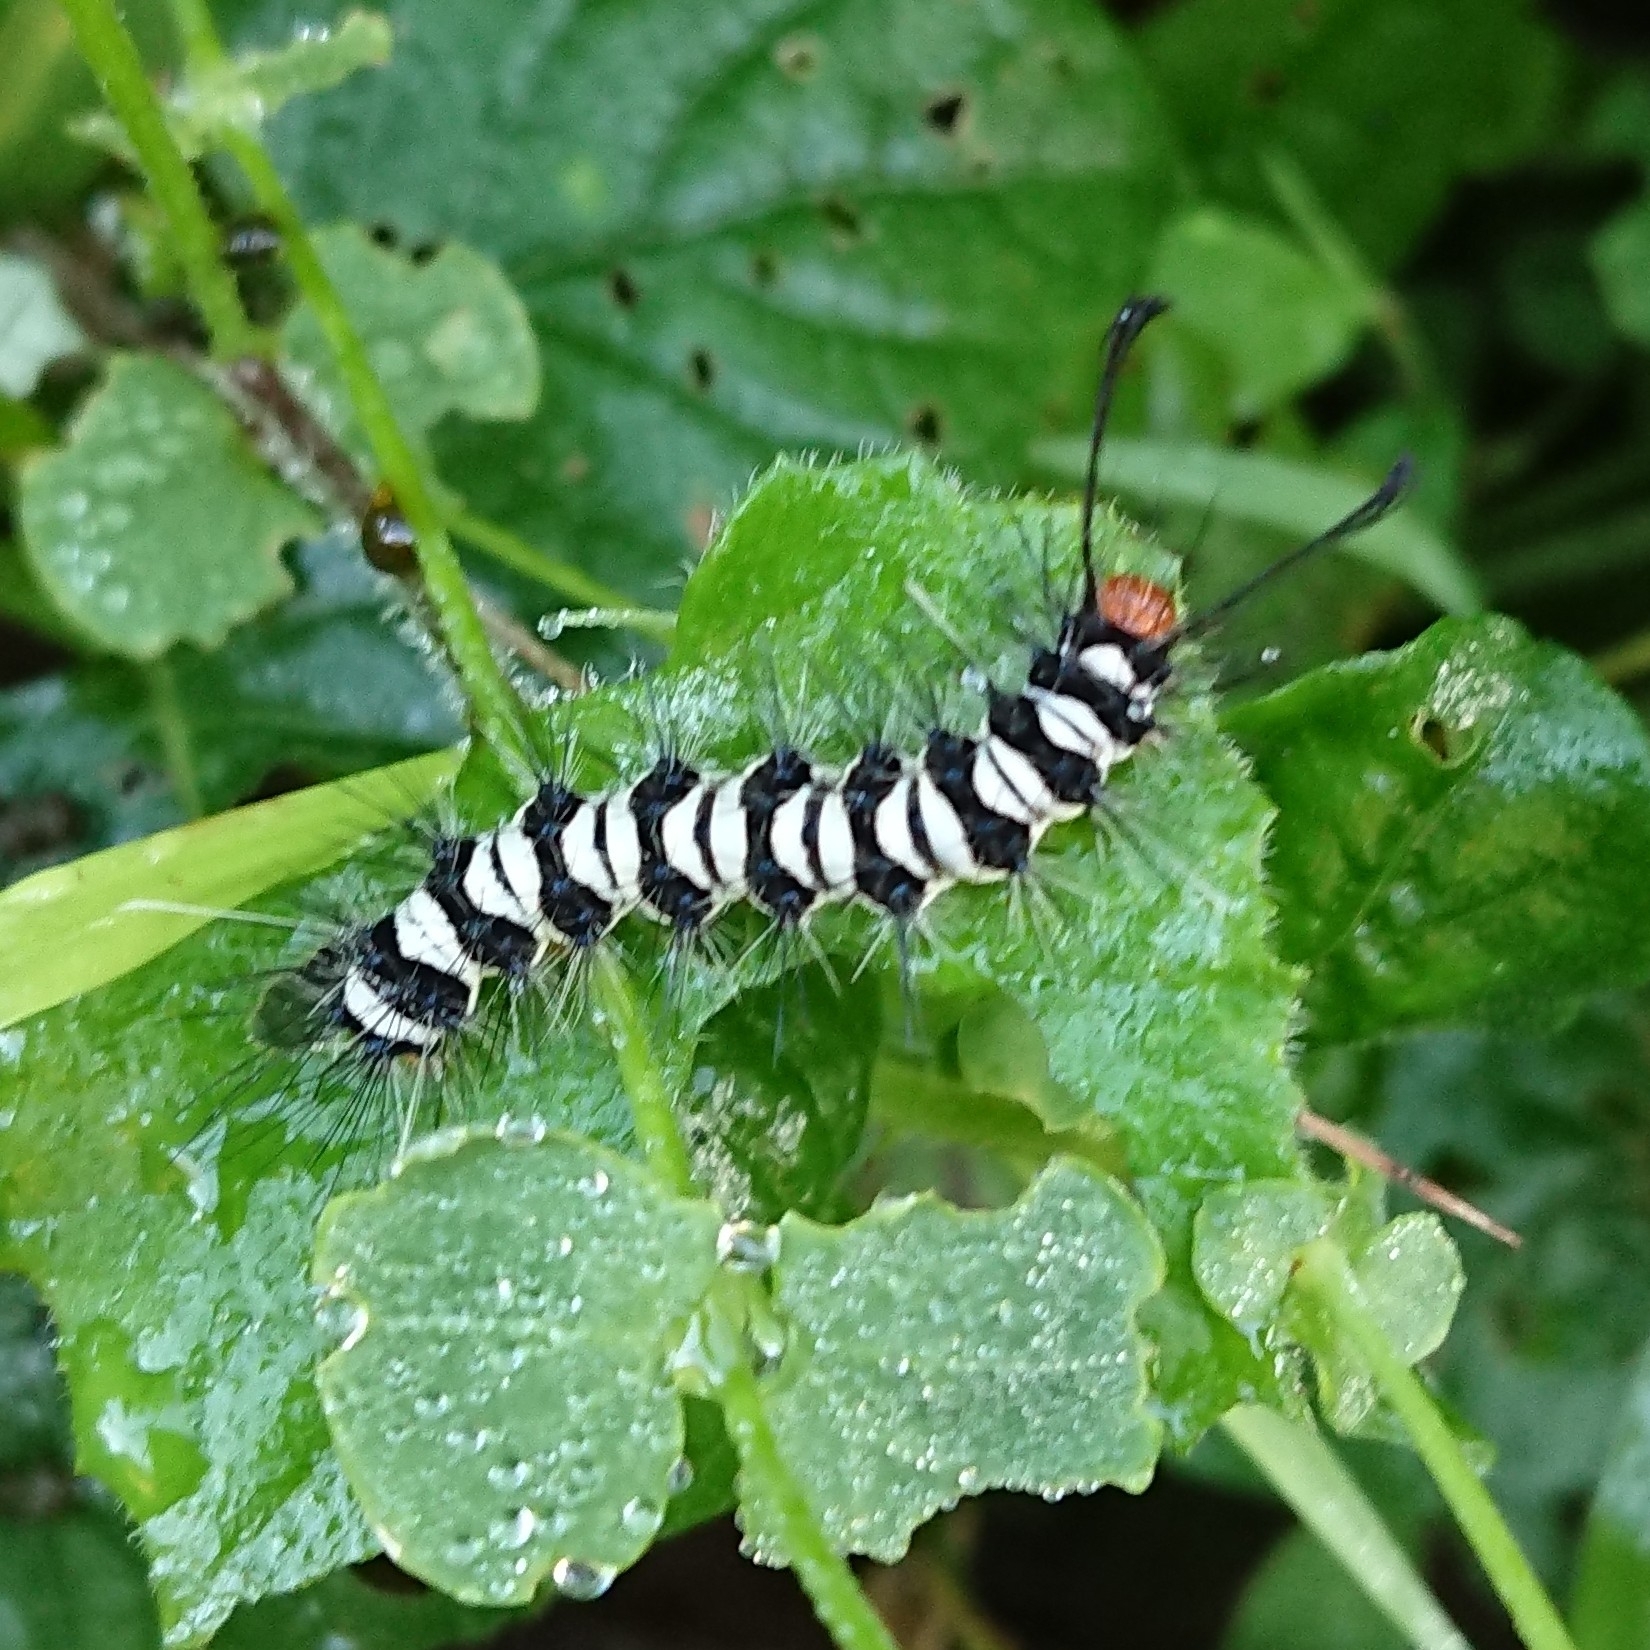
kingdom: Animalia
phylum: Arthropoda
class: Insecta
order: Lepidoptera
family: Erebidae
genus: Nyctemera
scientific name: Nyctemera
